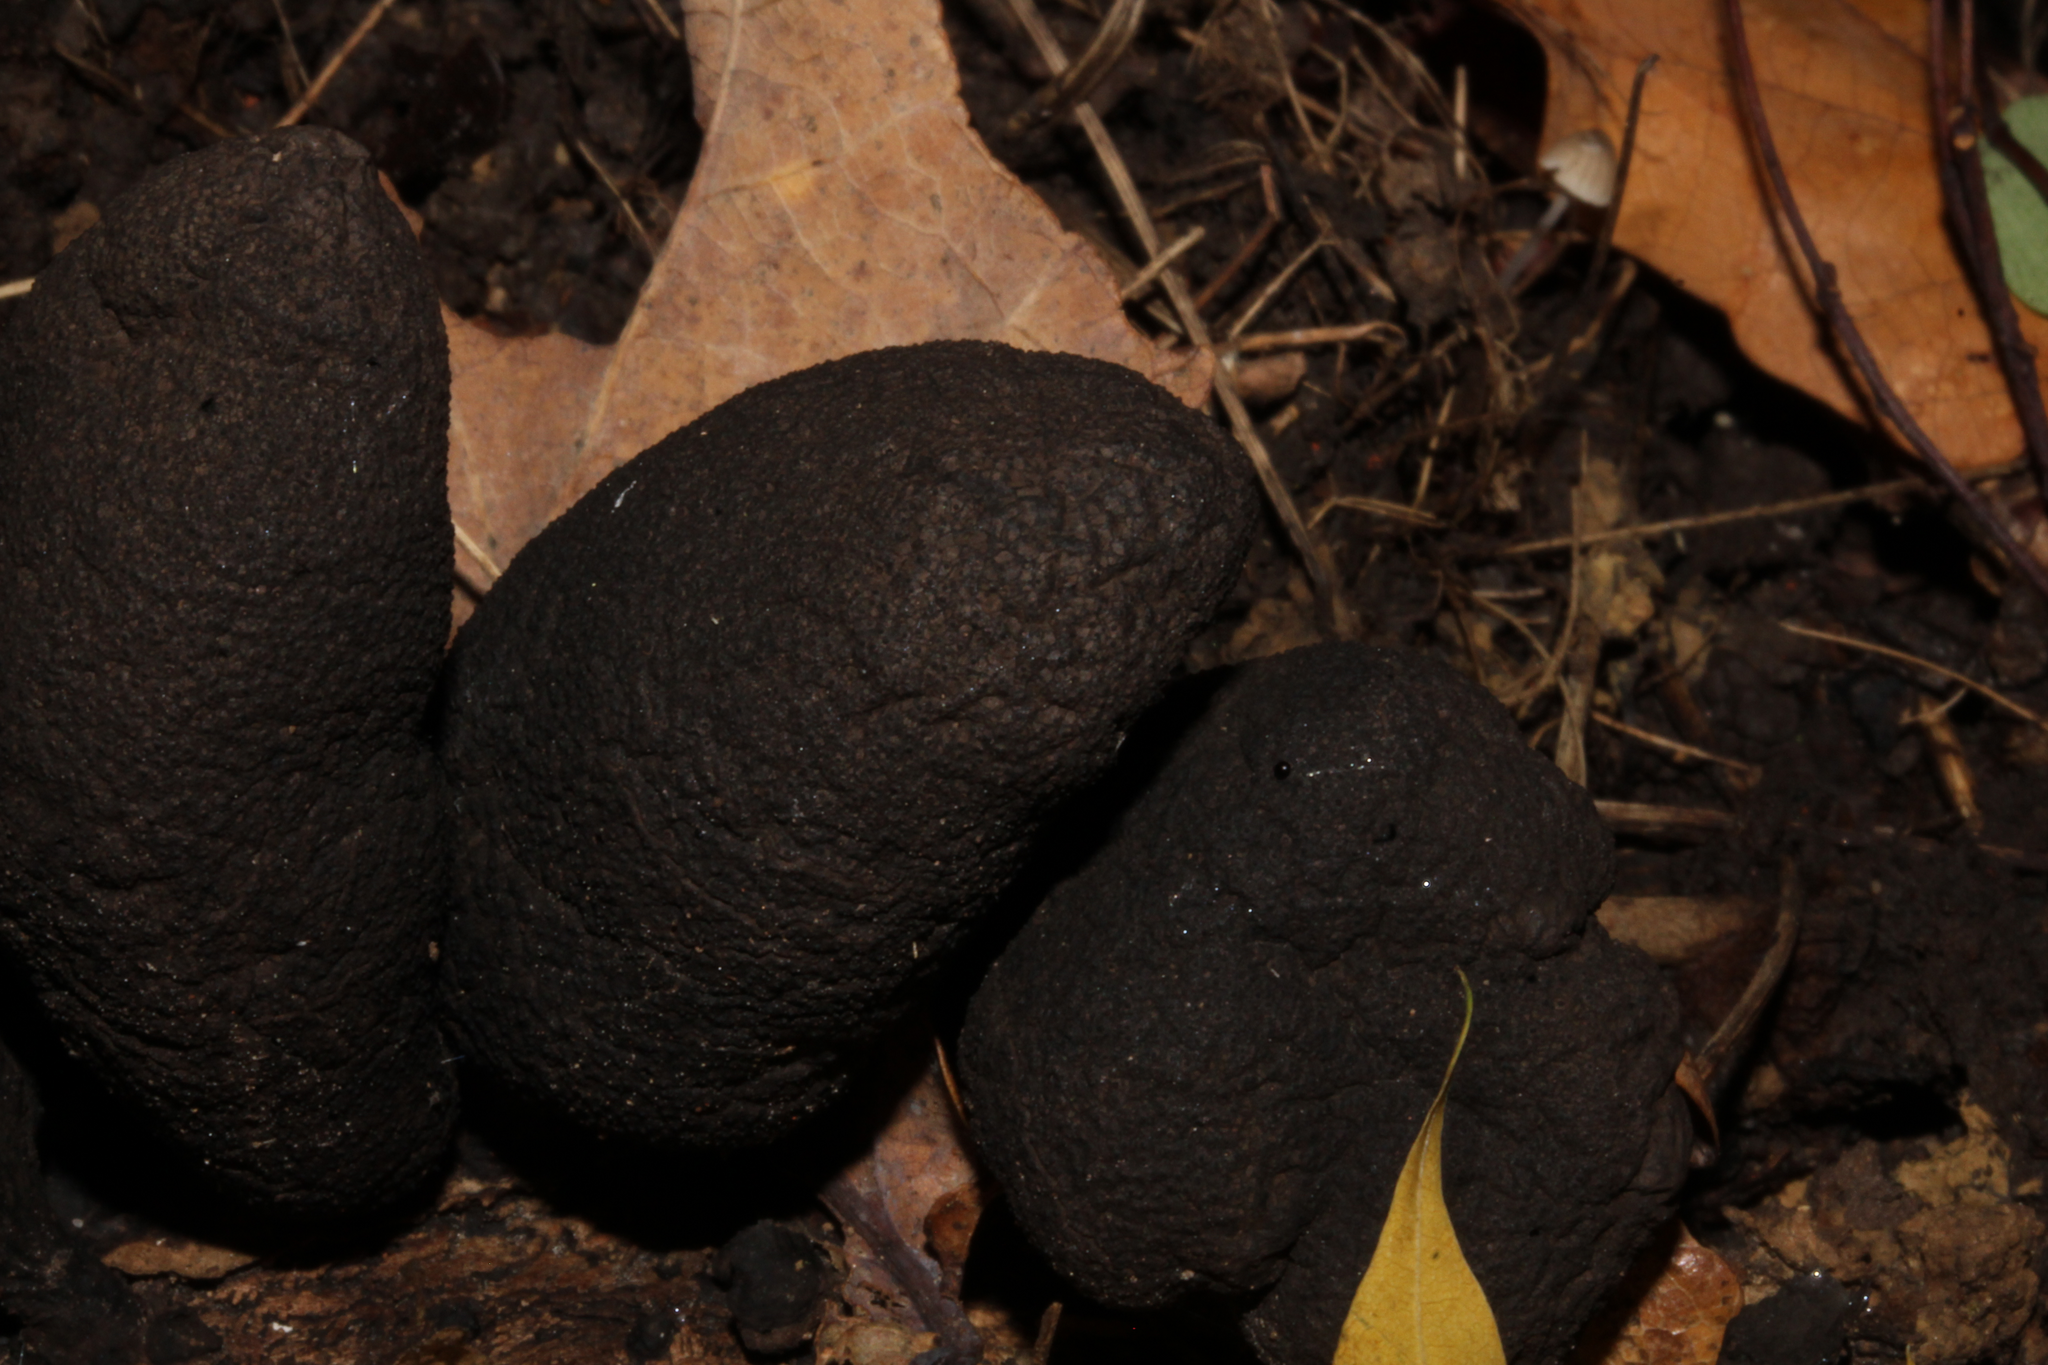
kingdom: Fungi
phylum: Ascomycota
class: Sordariomycetes
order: Xylariales
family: Xylariaceae
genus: Xylaria
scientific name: Xylaria polymorpha
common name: Dead man's fingers
